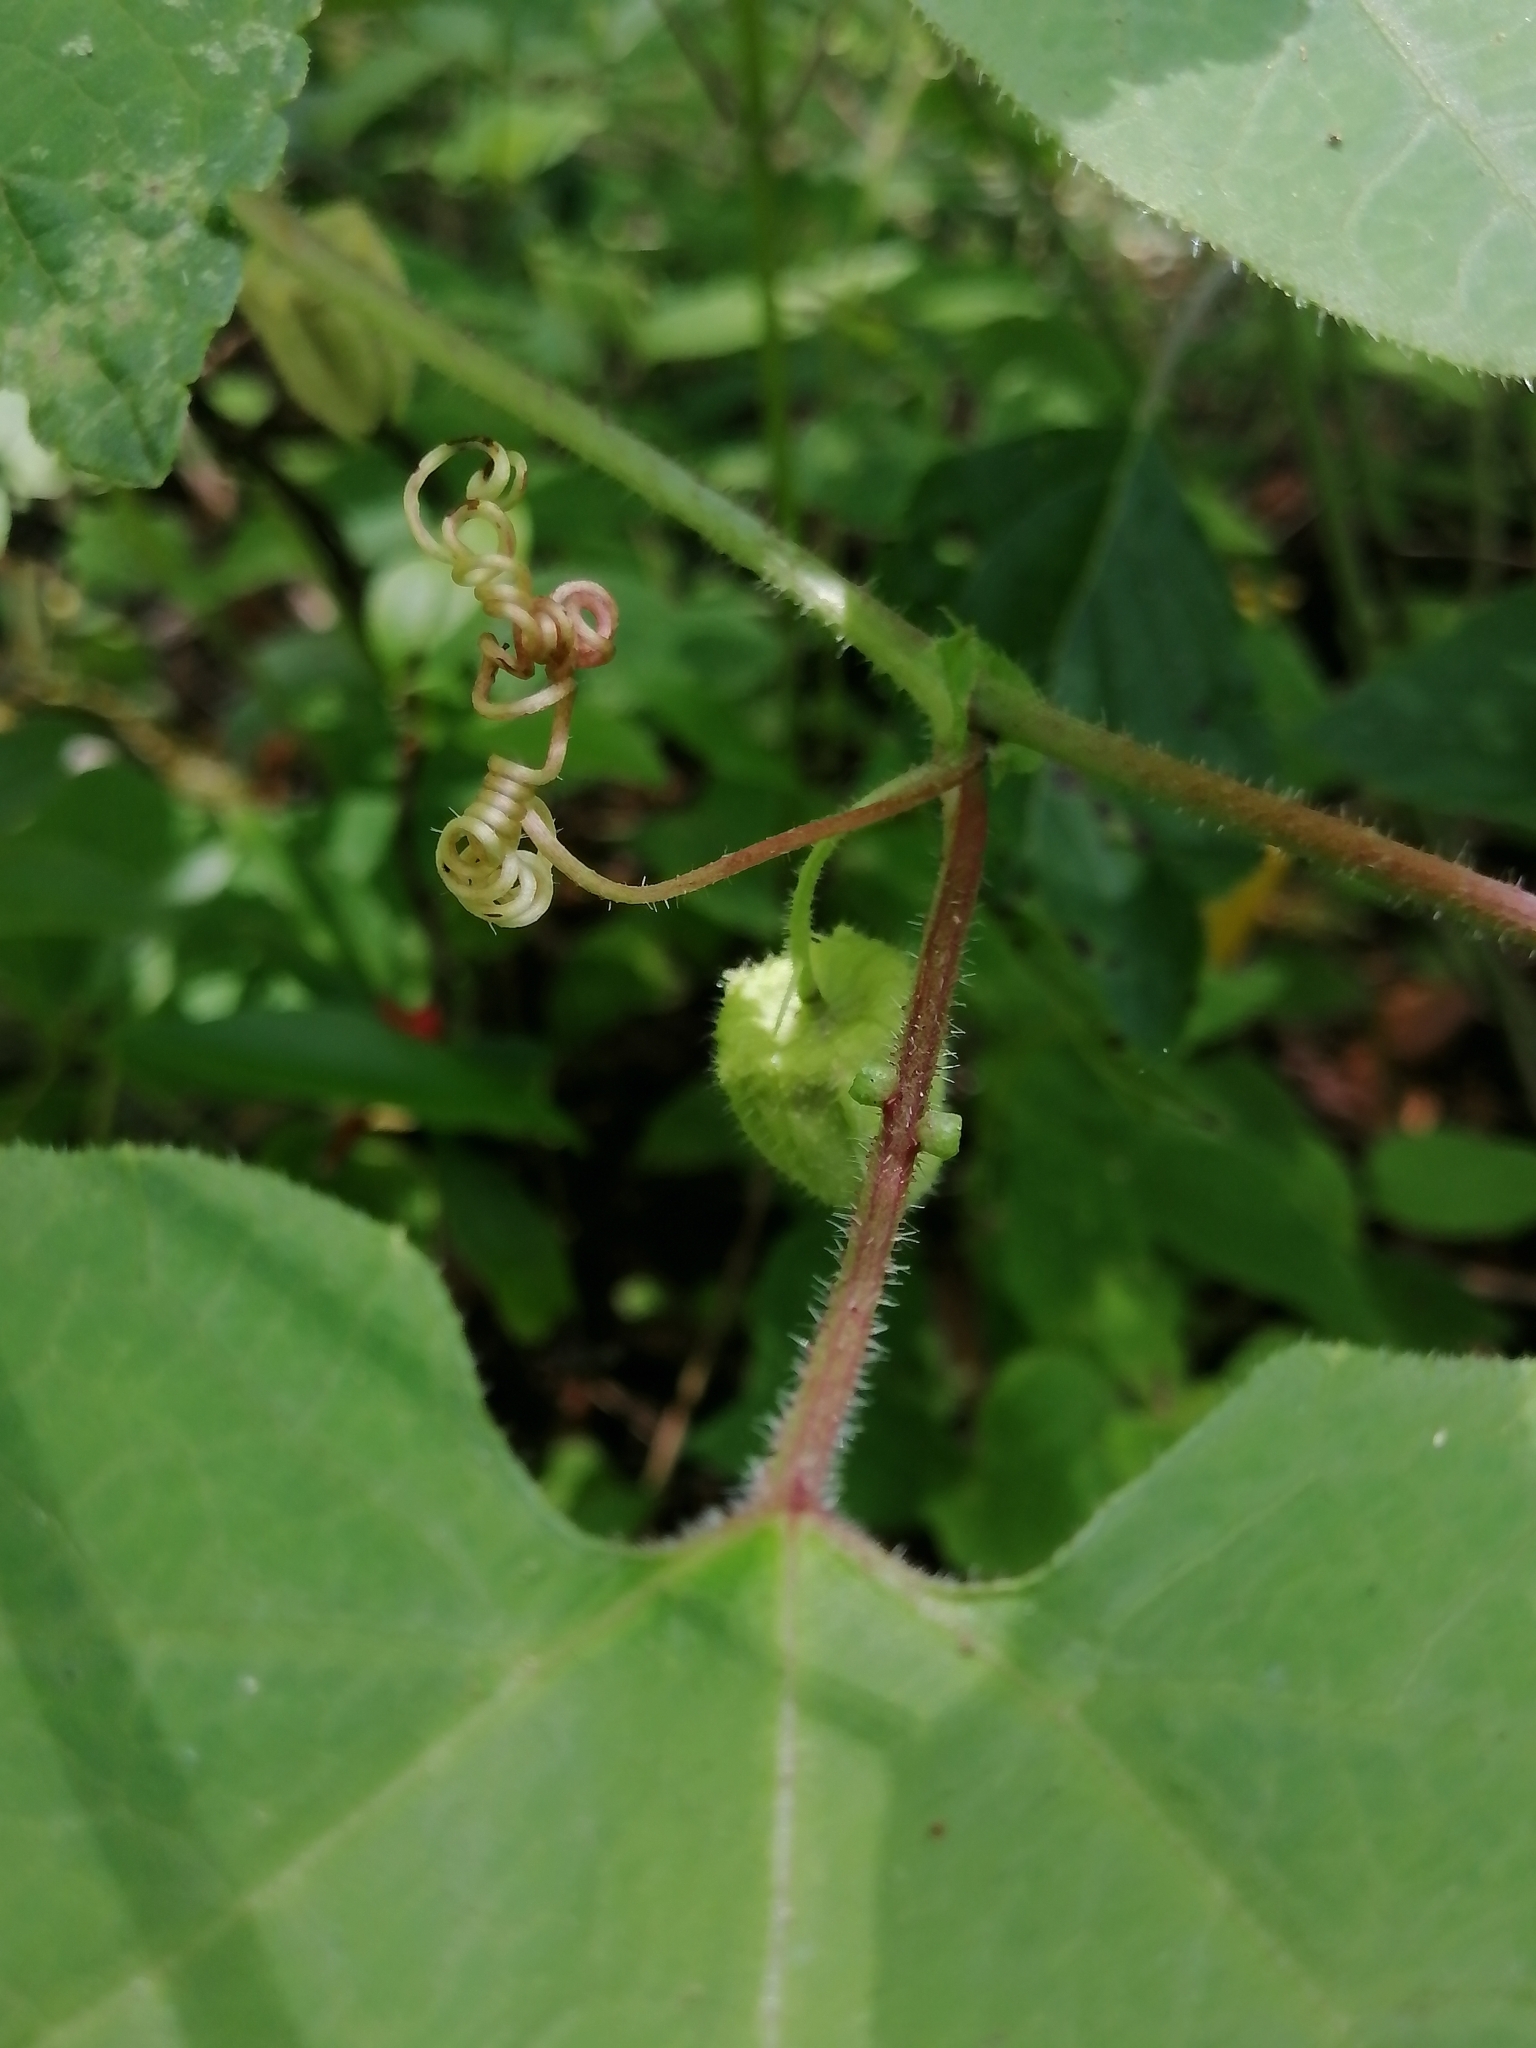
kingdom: Plantae
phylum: Tracheophyta
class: Magnoliopsida
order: Malpighiales
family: Passifloraceae
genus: Passiflora
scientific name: Passiflora exsudans
